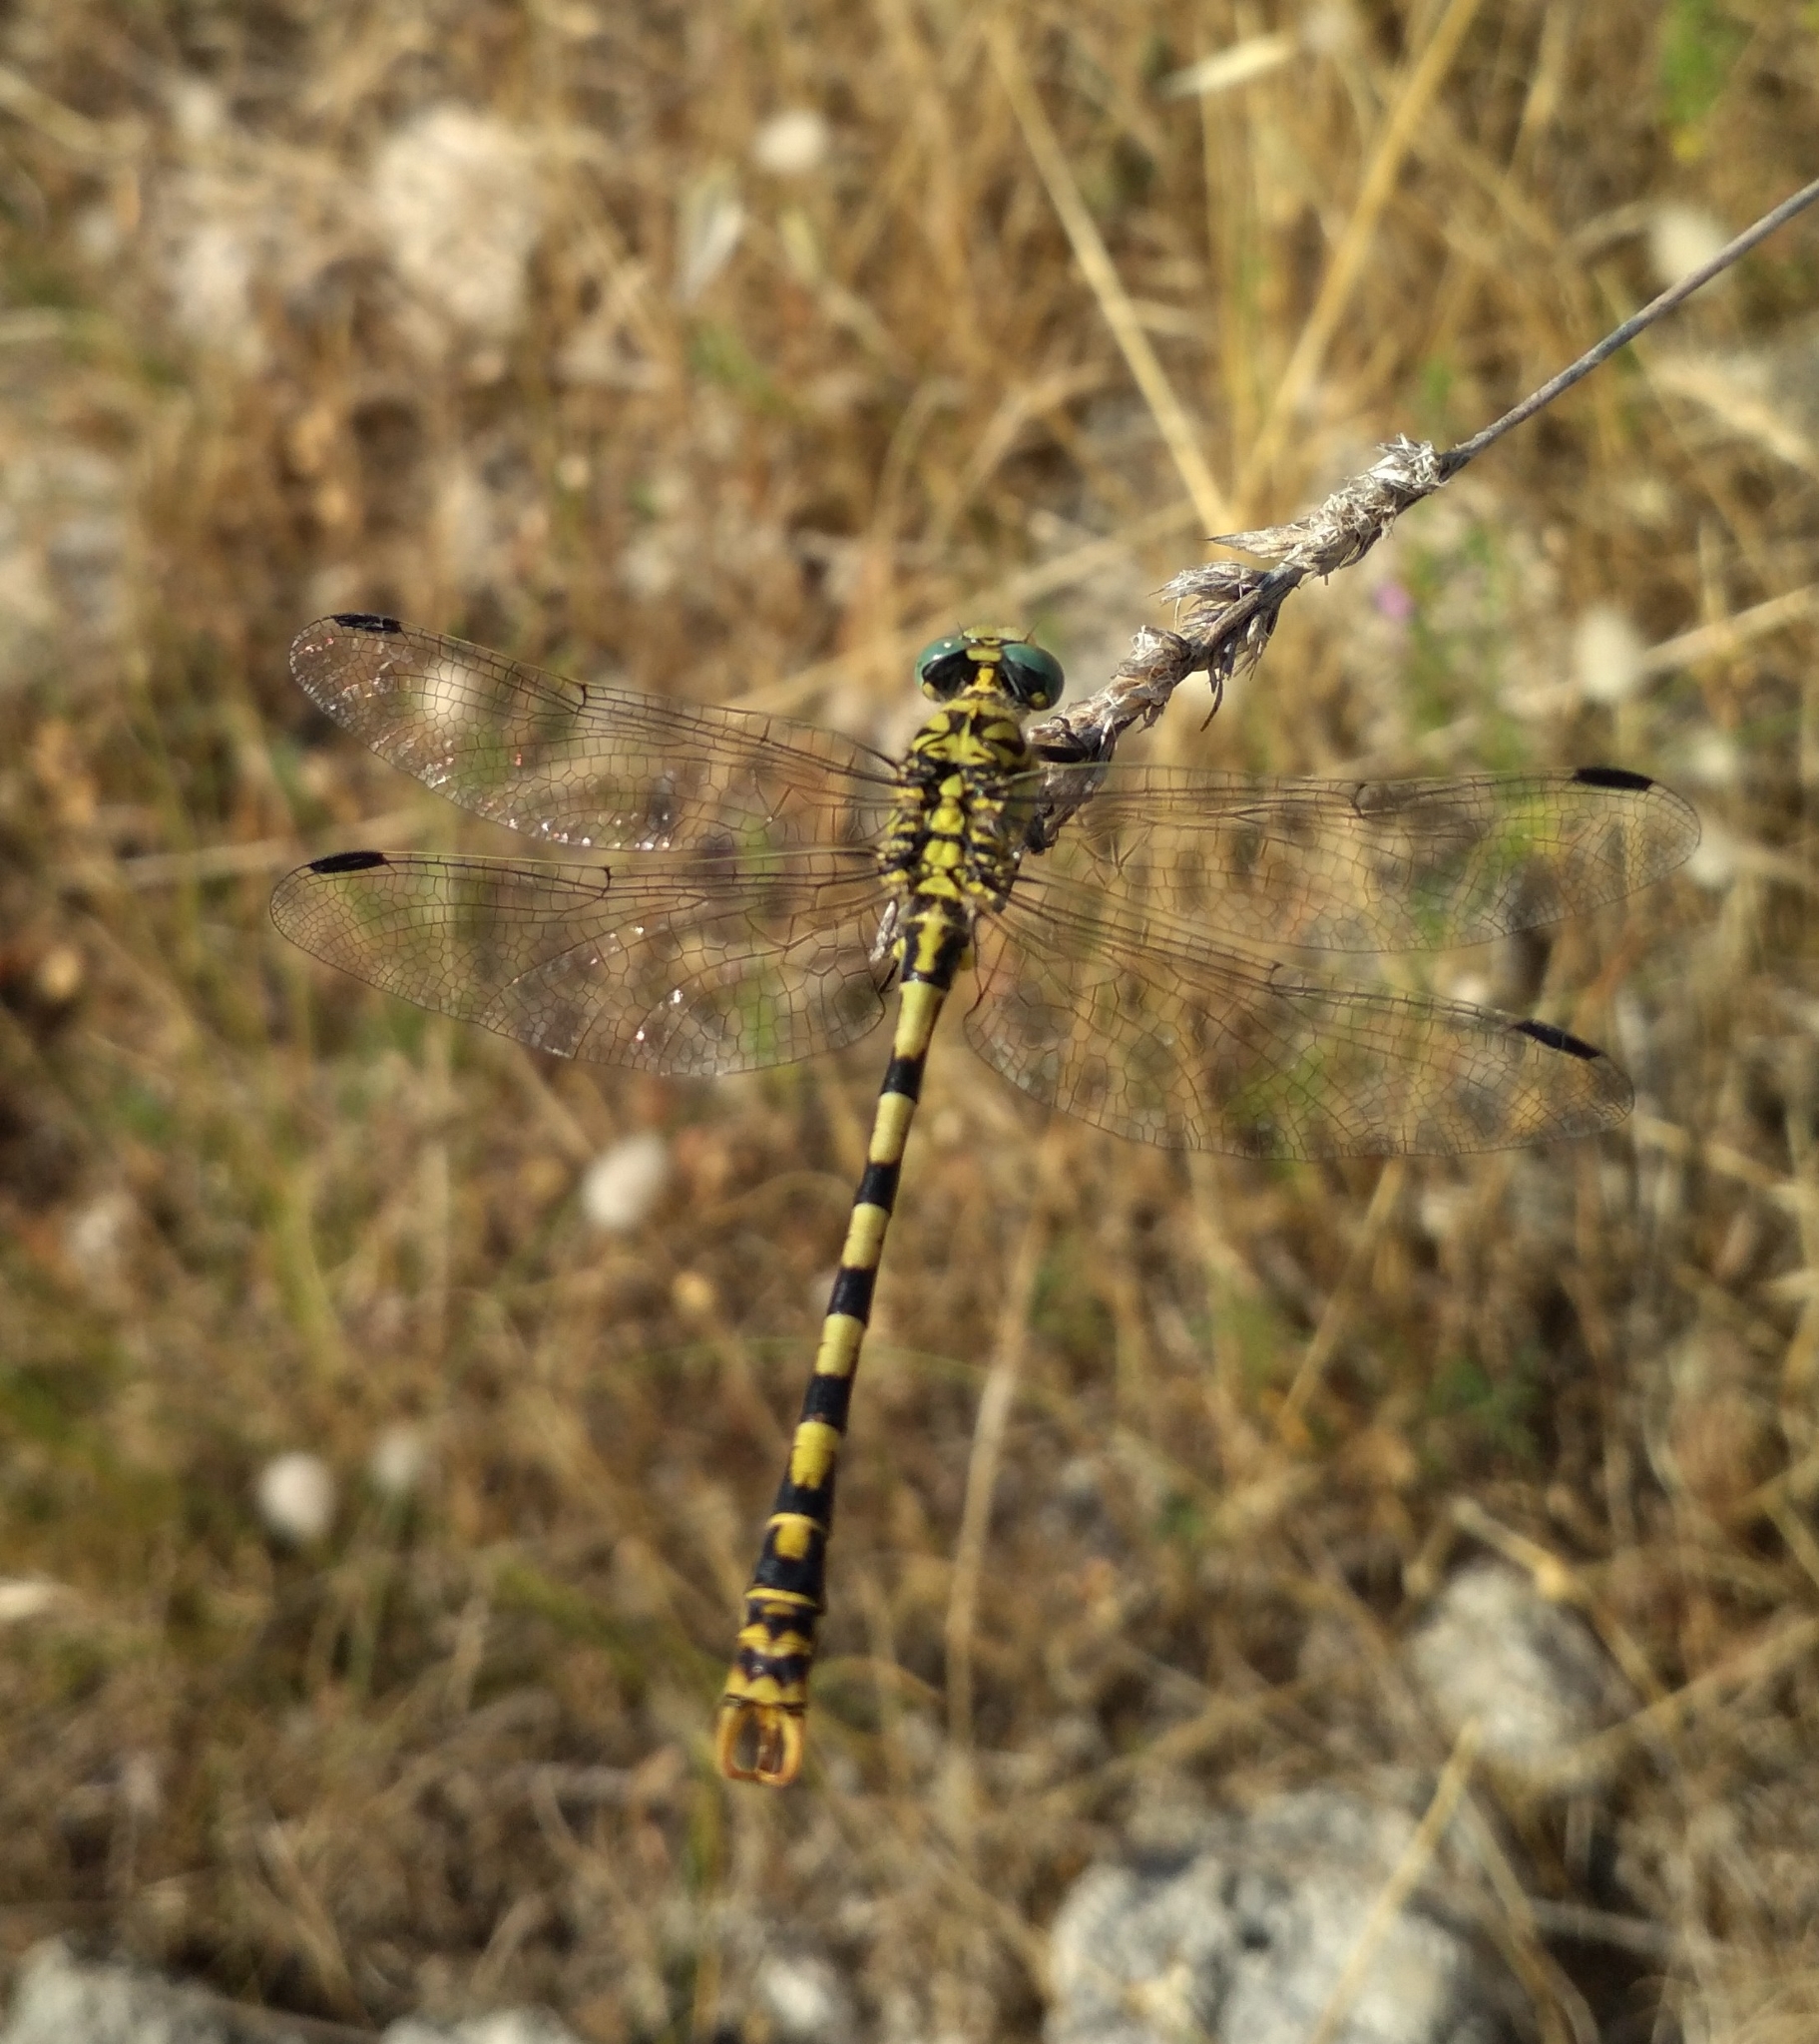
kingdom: Animalia
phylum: Arthropoda
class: Insecta
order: Odonata
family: Gomphidae
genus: Onychogomphus
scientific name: Onychogomphus forcipatus
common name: Small pincertail
